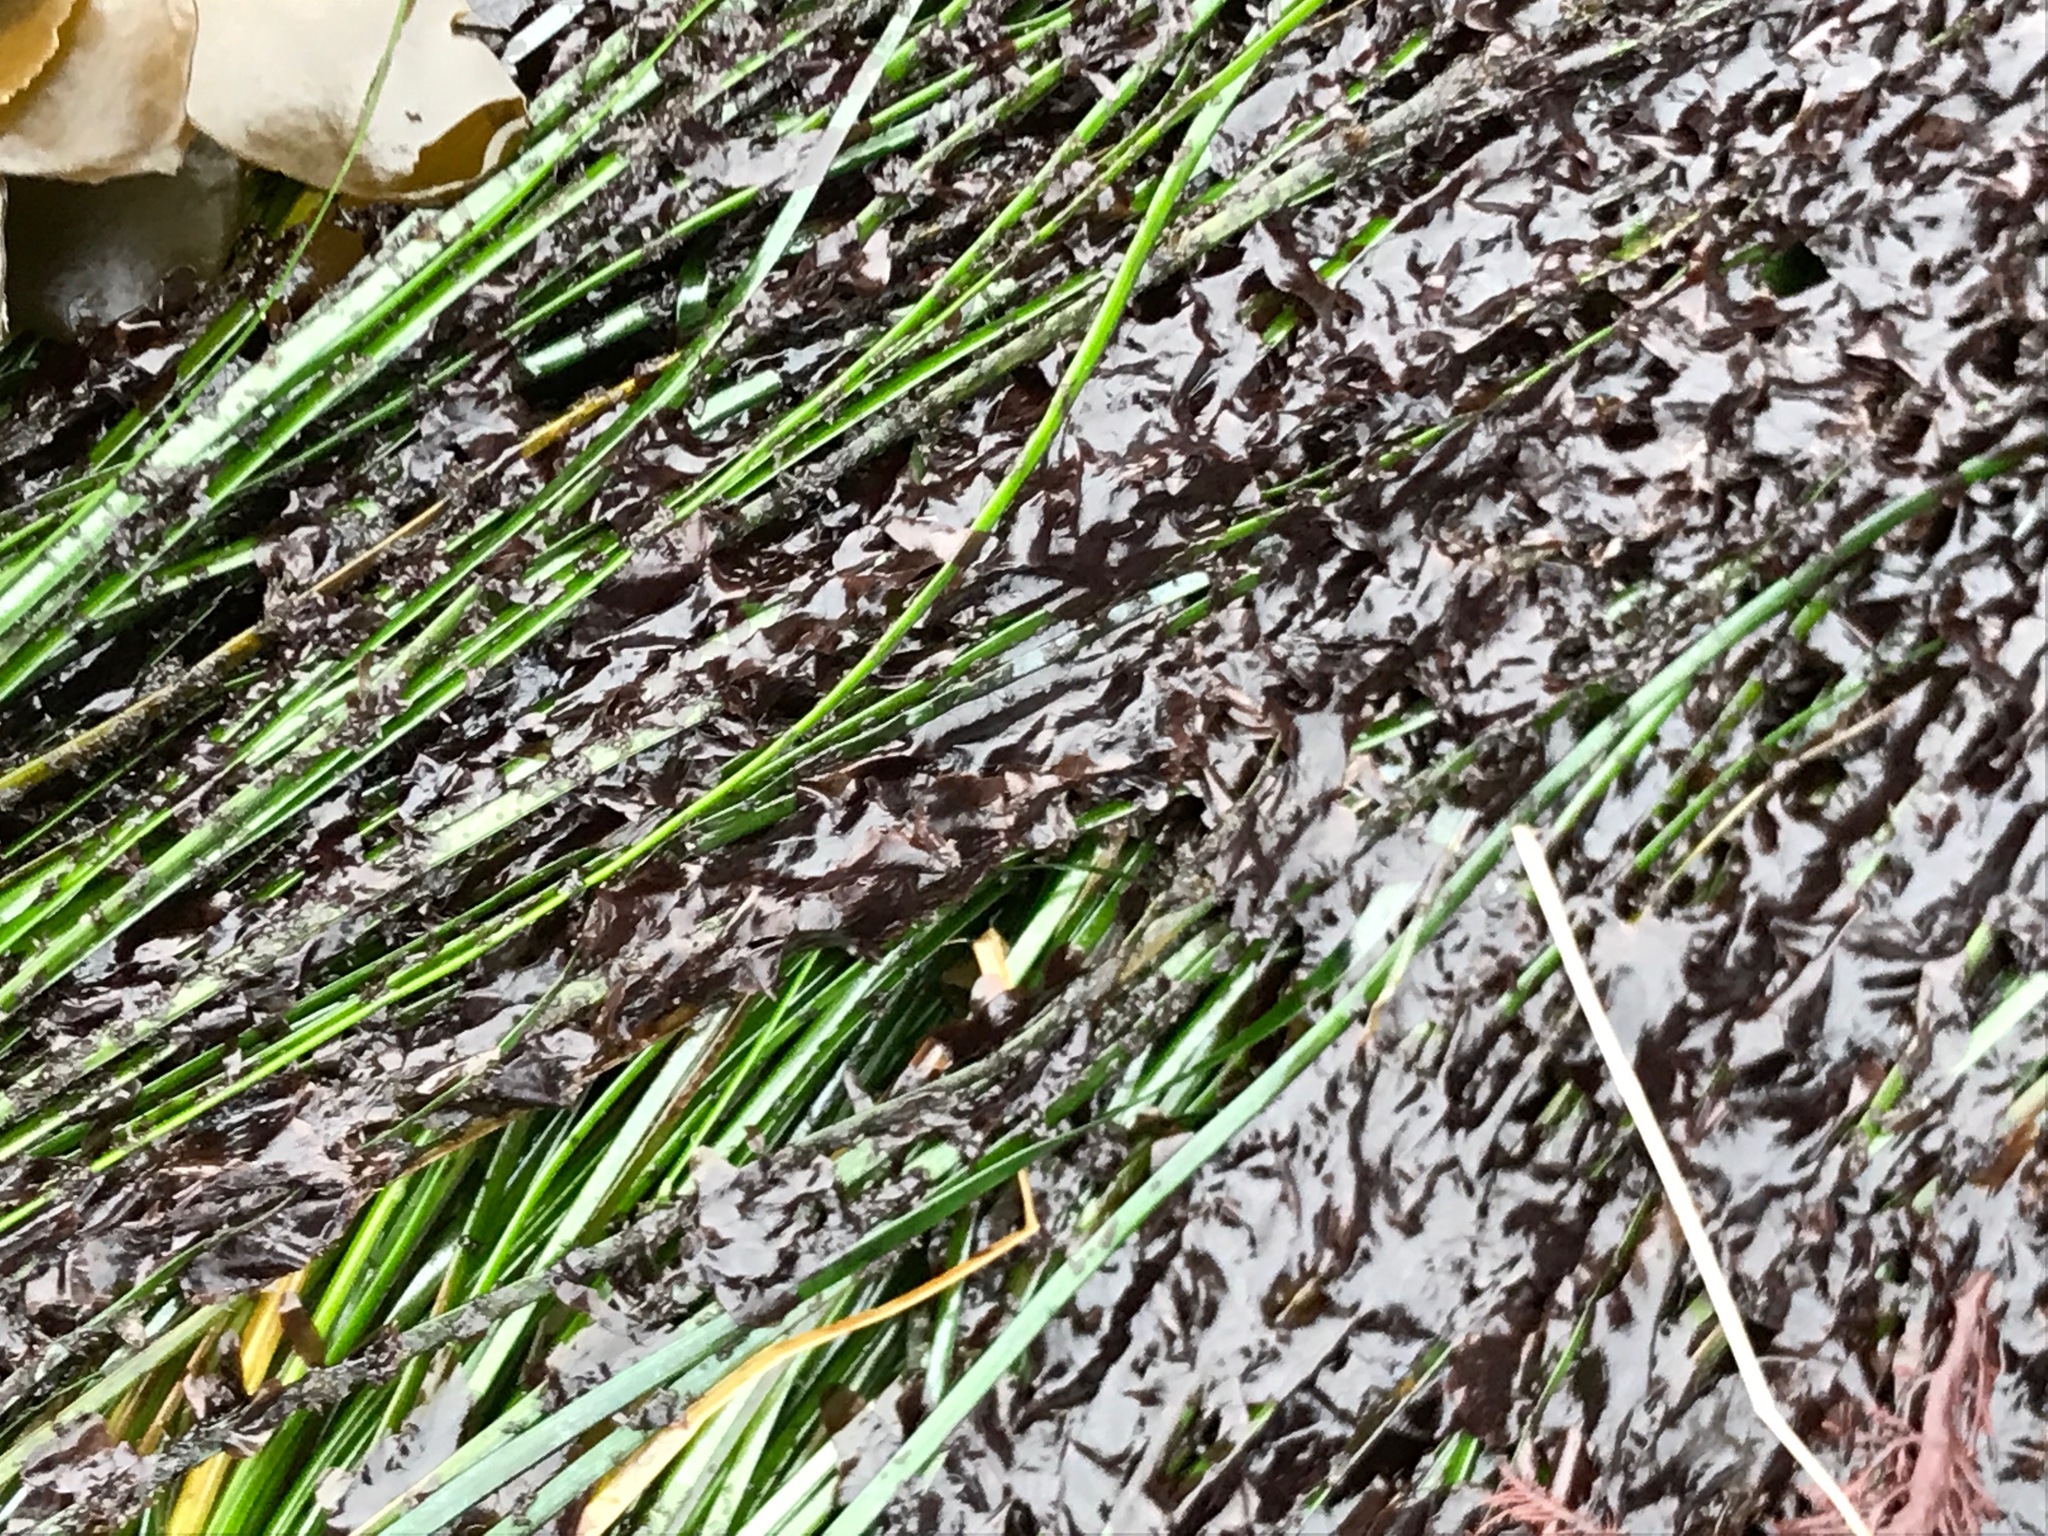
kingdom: Plantae
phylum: Rhodophyta
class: Compsopogonophyceae
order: Erythropeltidales
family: Erythrotrichiaceae
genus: Smithora
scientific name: Smithora naiadum
